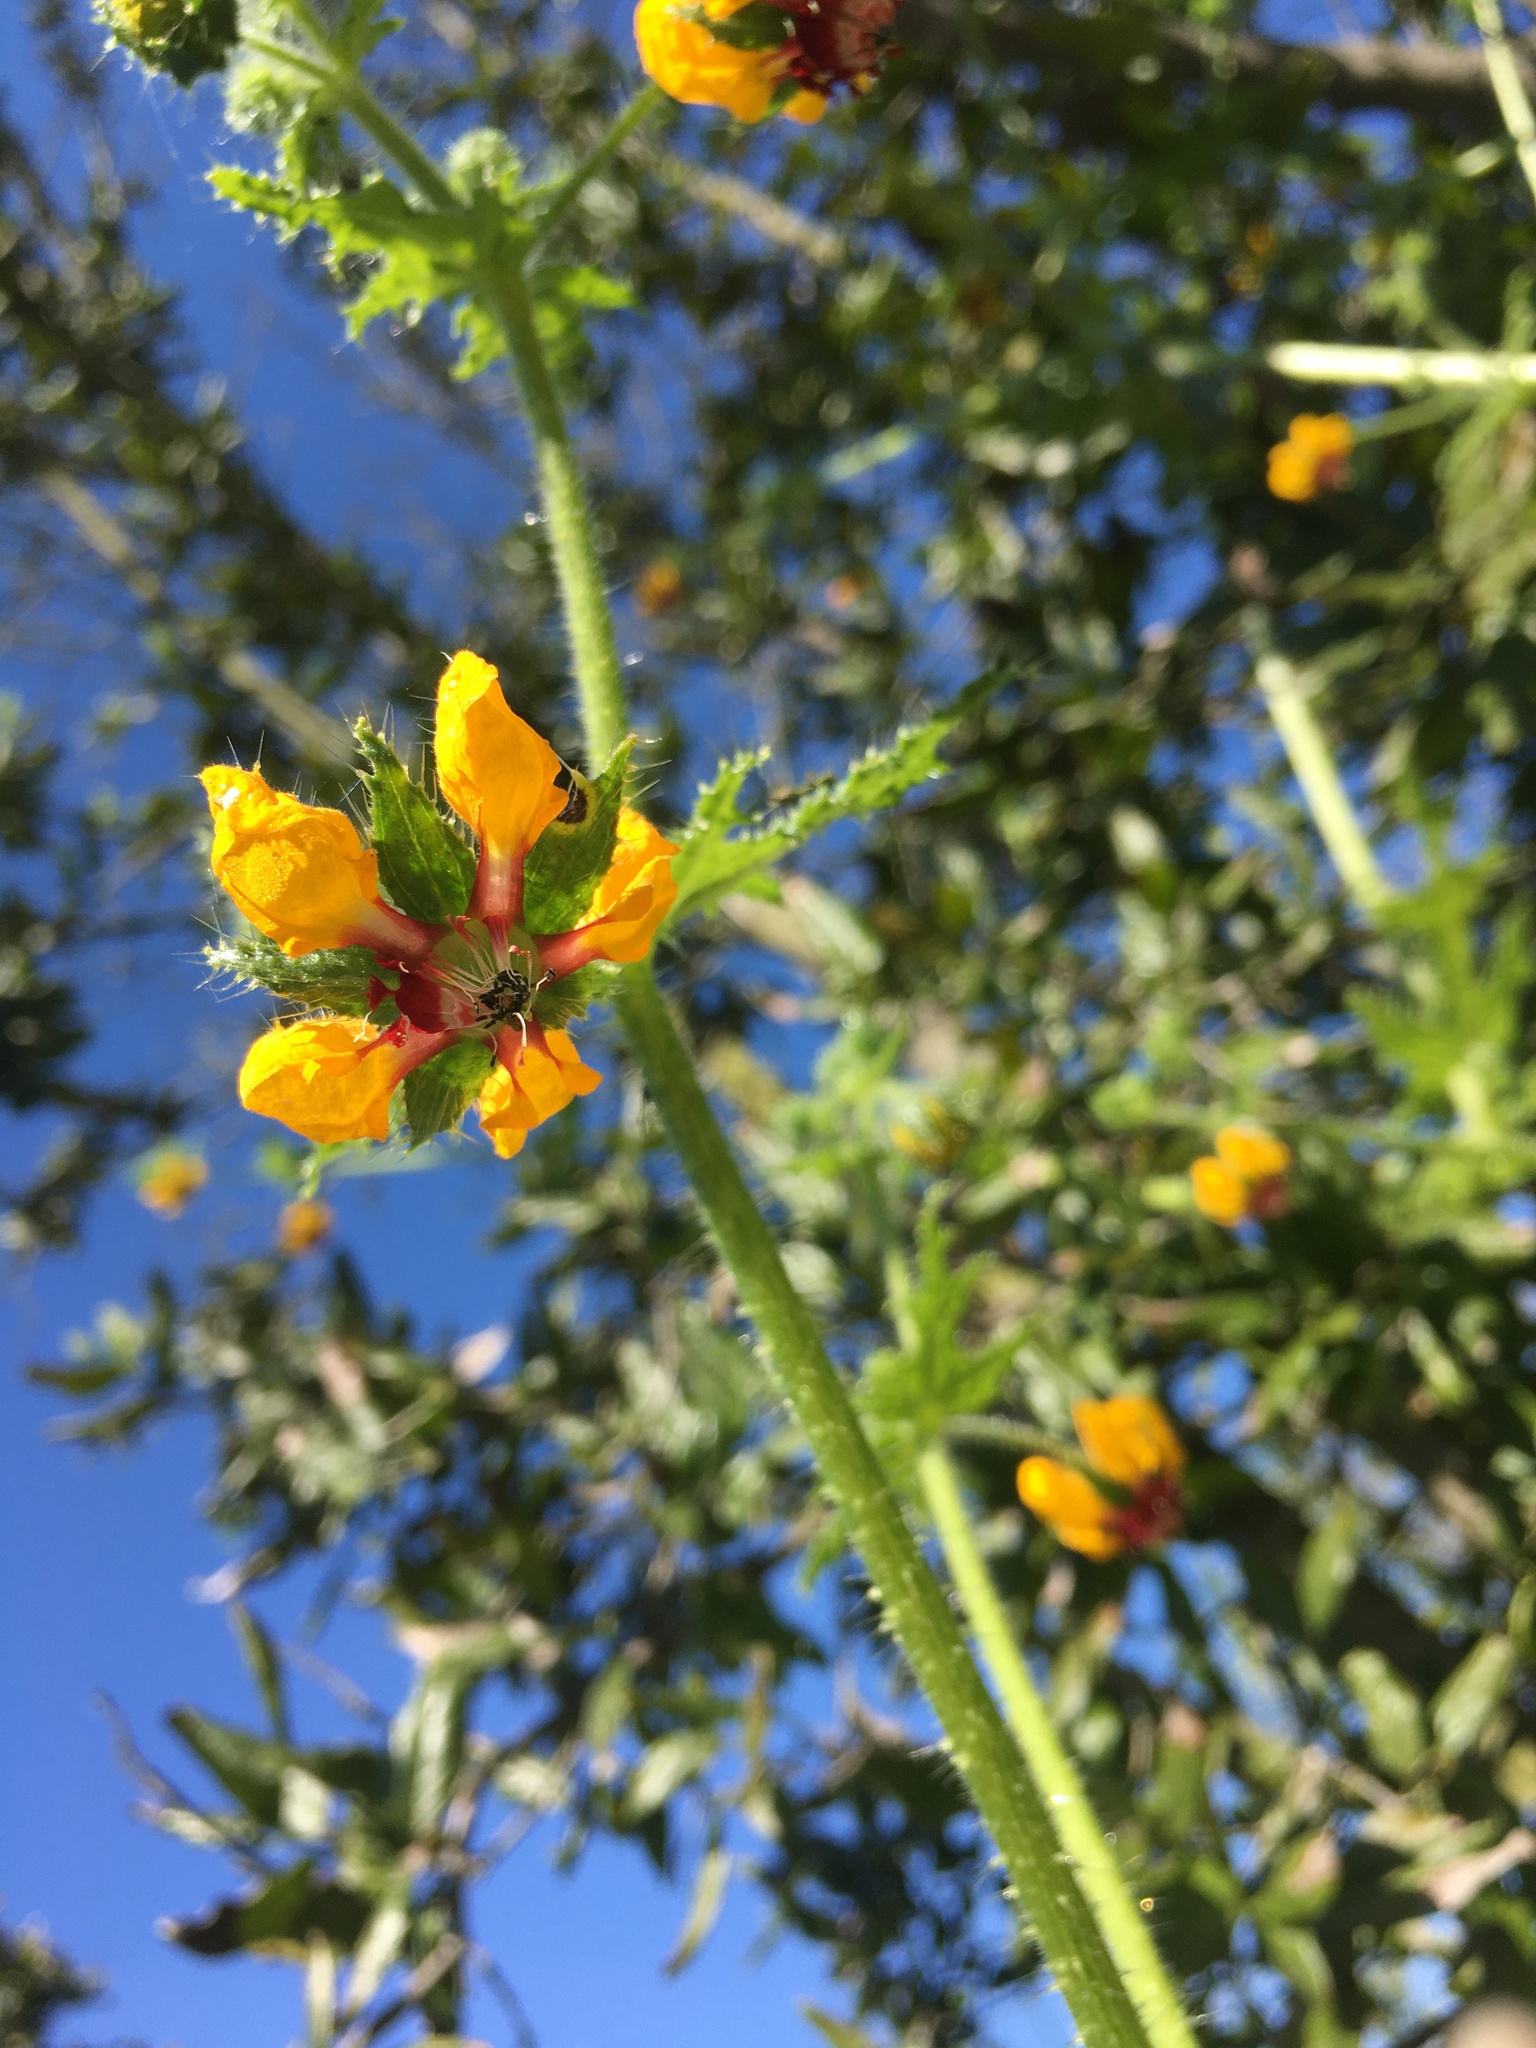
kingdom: Plantae
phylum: Tracheophyta
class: Magnoliopsida
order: Cornales
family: Loasaceae
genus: Loasa
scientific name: Loasa tricolor
